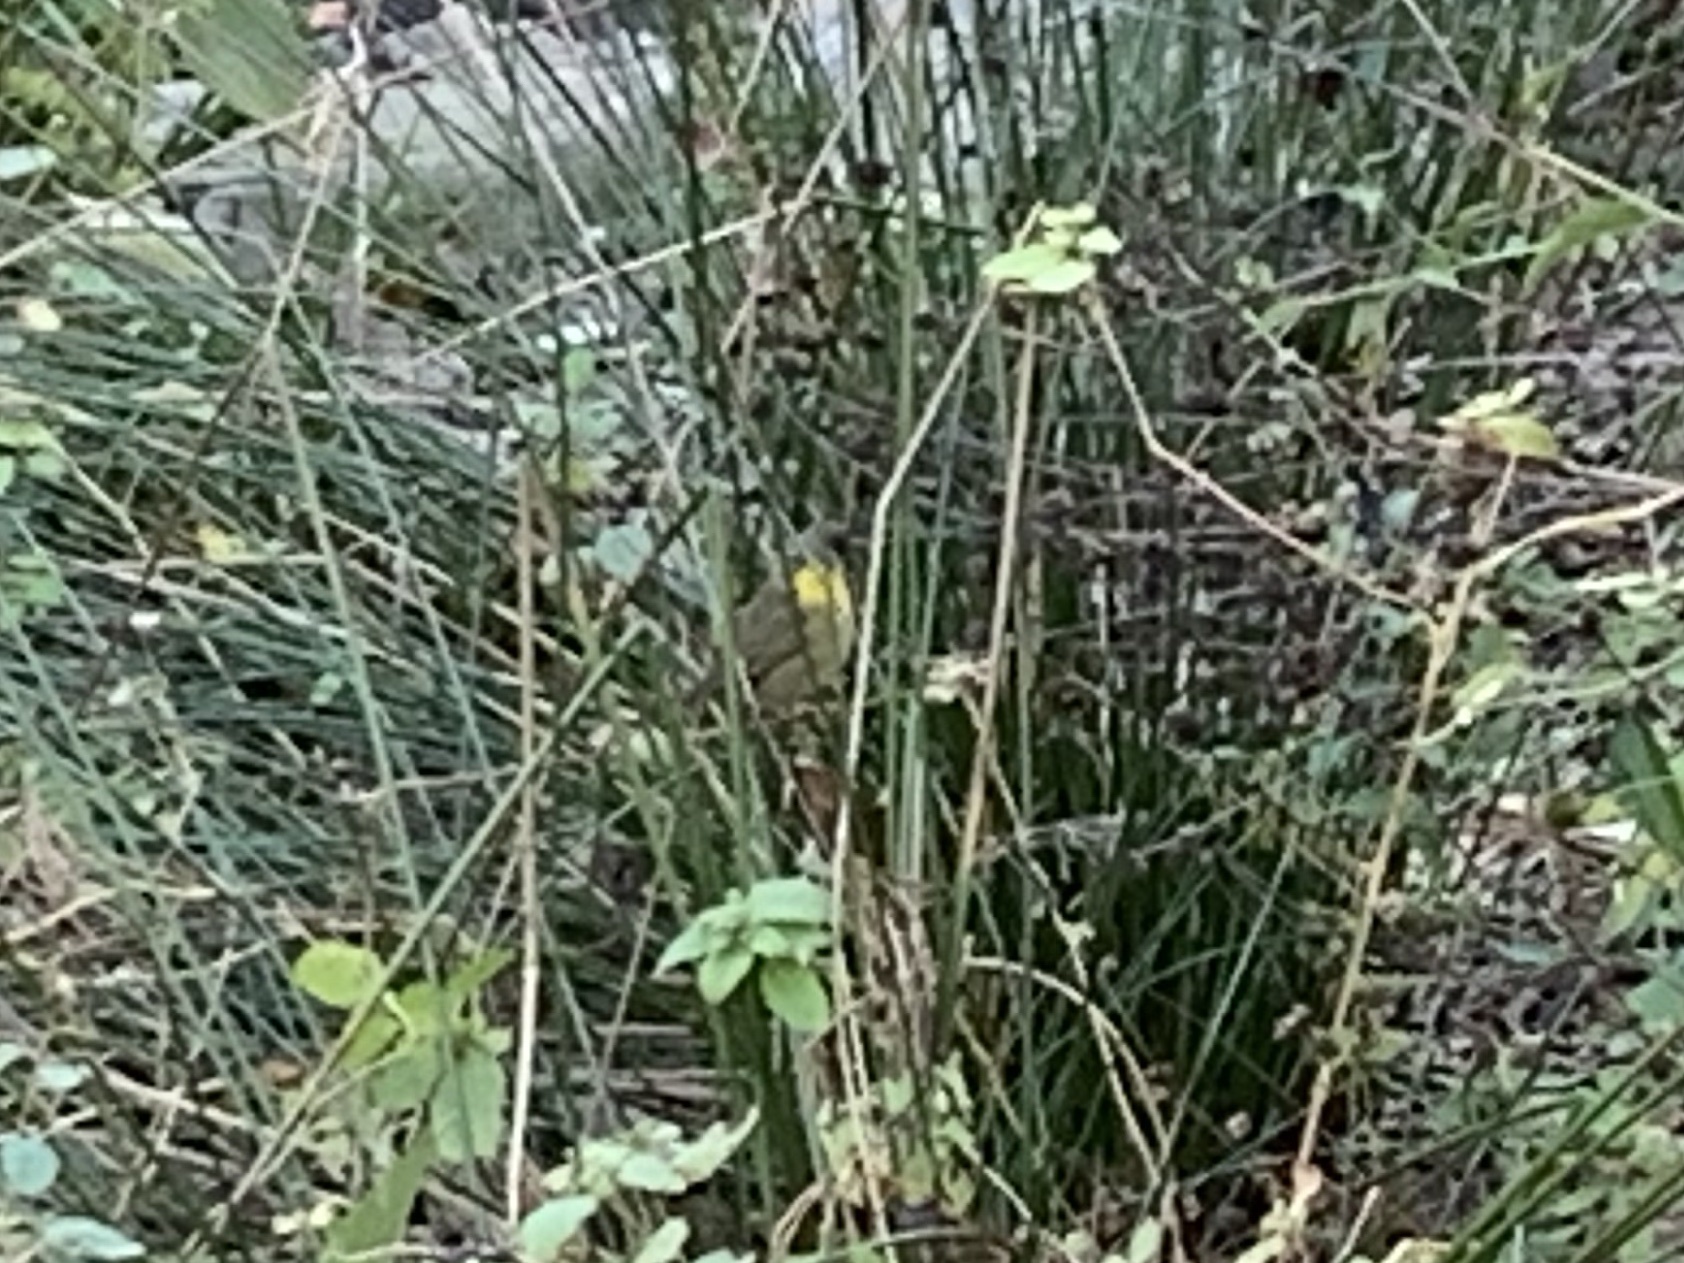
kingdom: Animalia
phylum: Chordata
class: Aves
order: Passeriformes
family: Parulidae
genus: Geothlypis
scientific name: Geothlypis trichas
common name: Common yellowthroat
